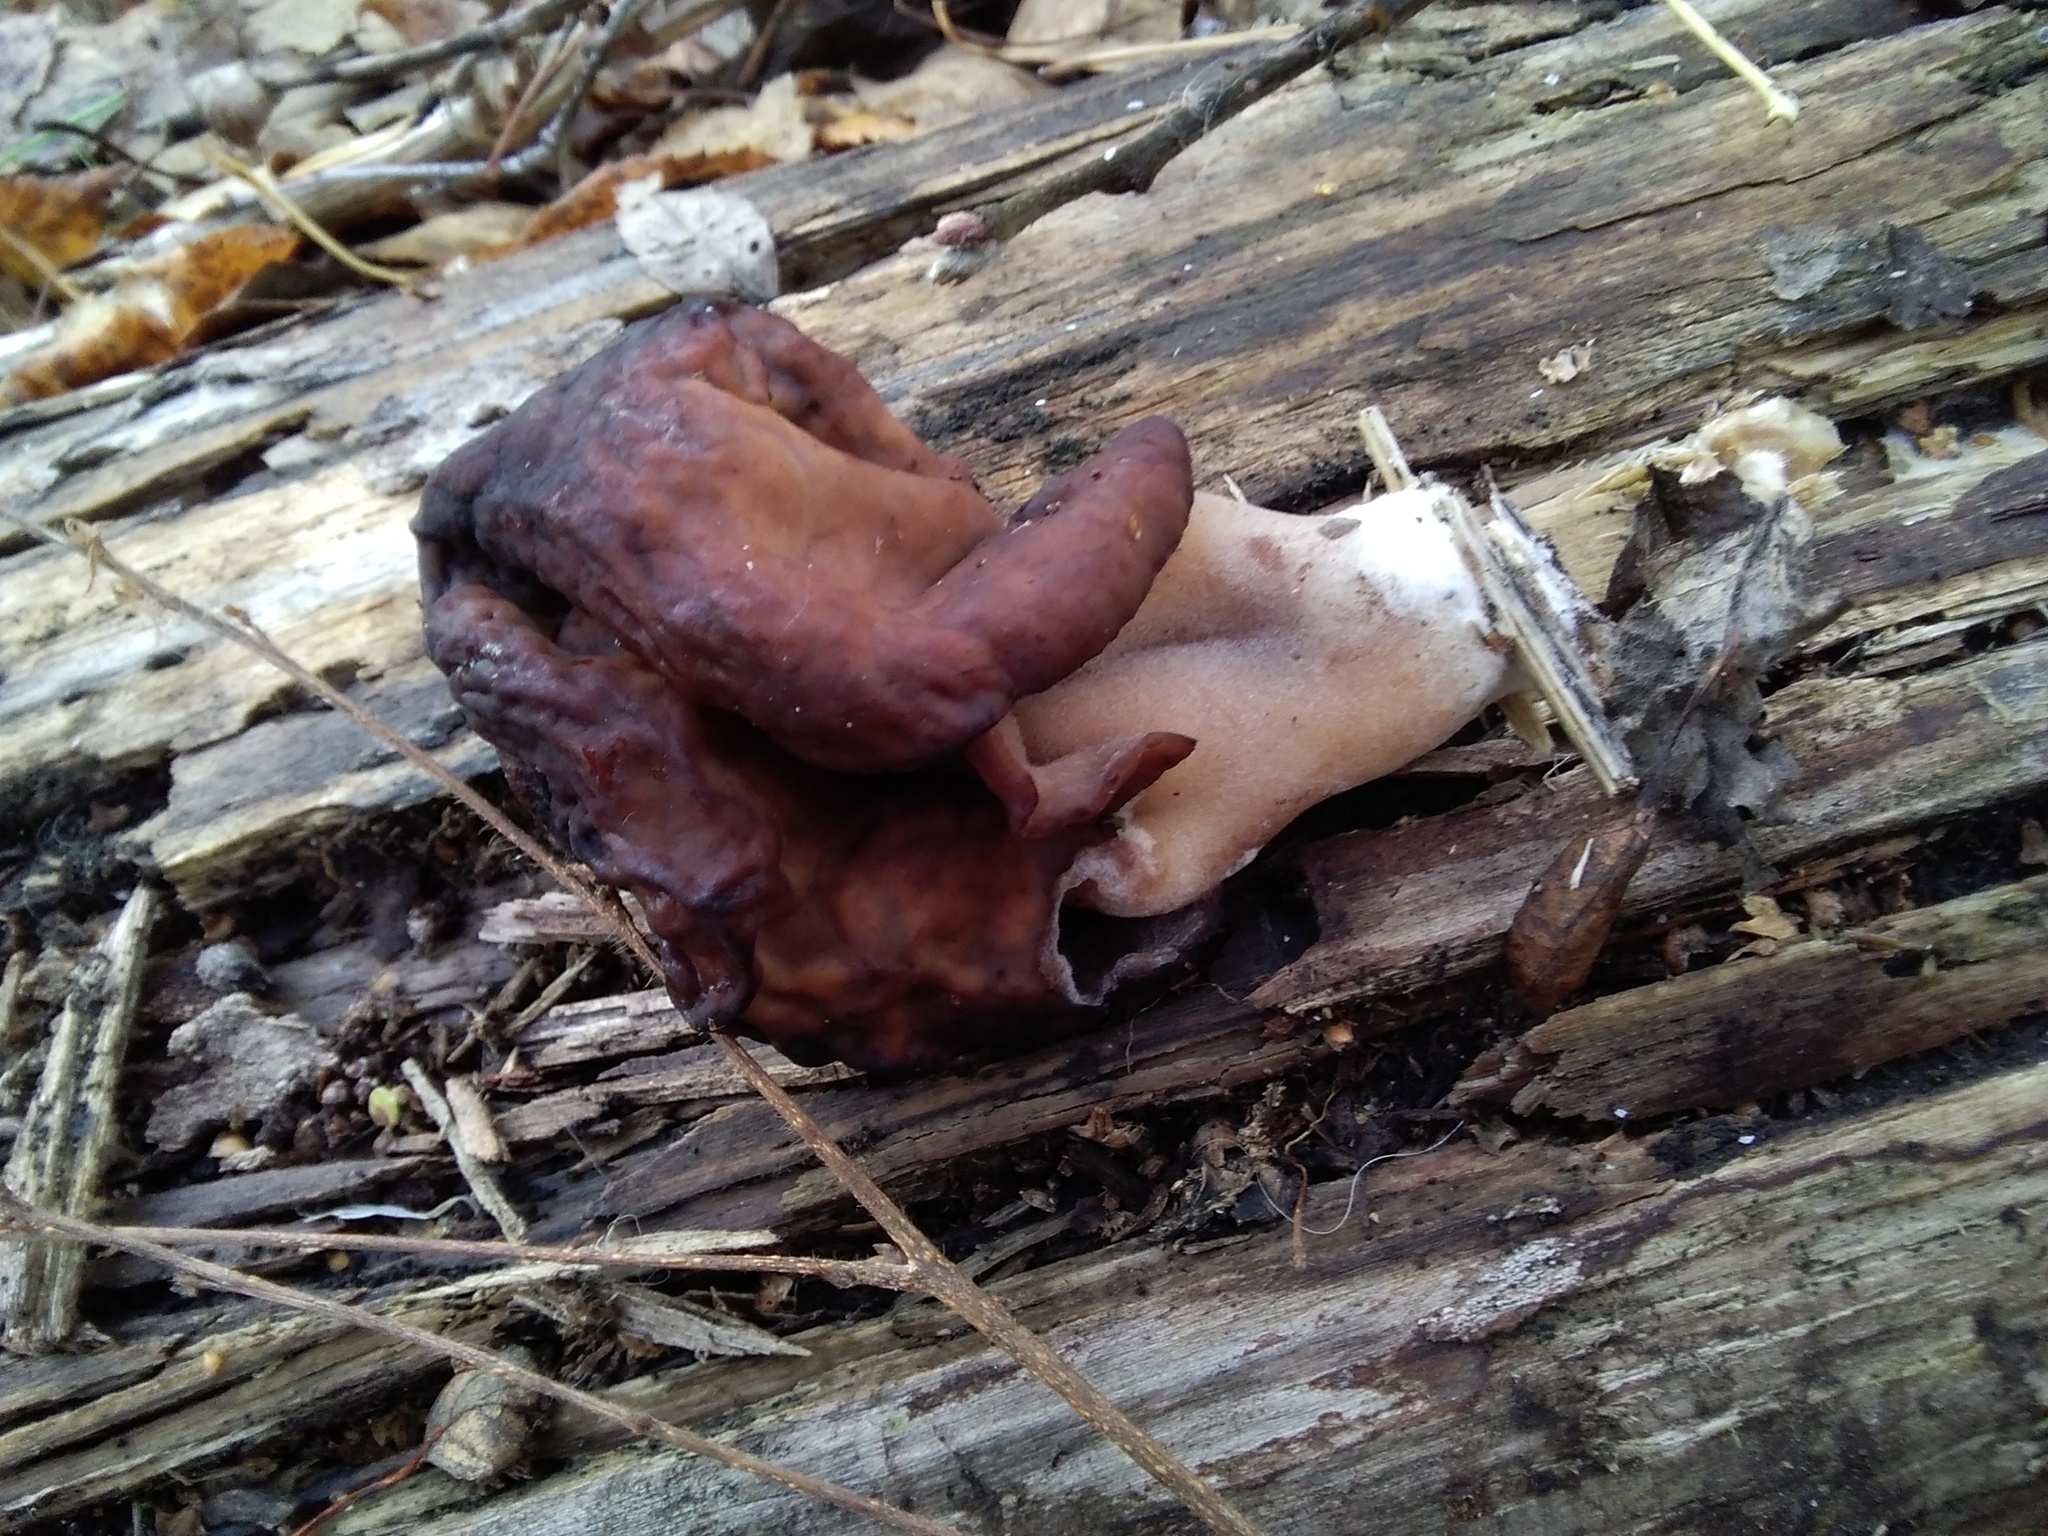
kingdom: Fungi
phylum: Ascomycota
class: Pezizomycetes
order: Pezizales
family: Discinaceae
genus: Gyromitra
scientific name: Gyromitra infula
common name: Pouched false morel
